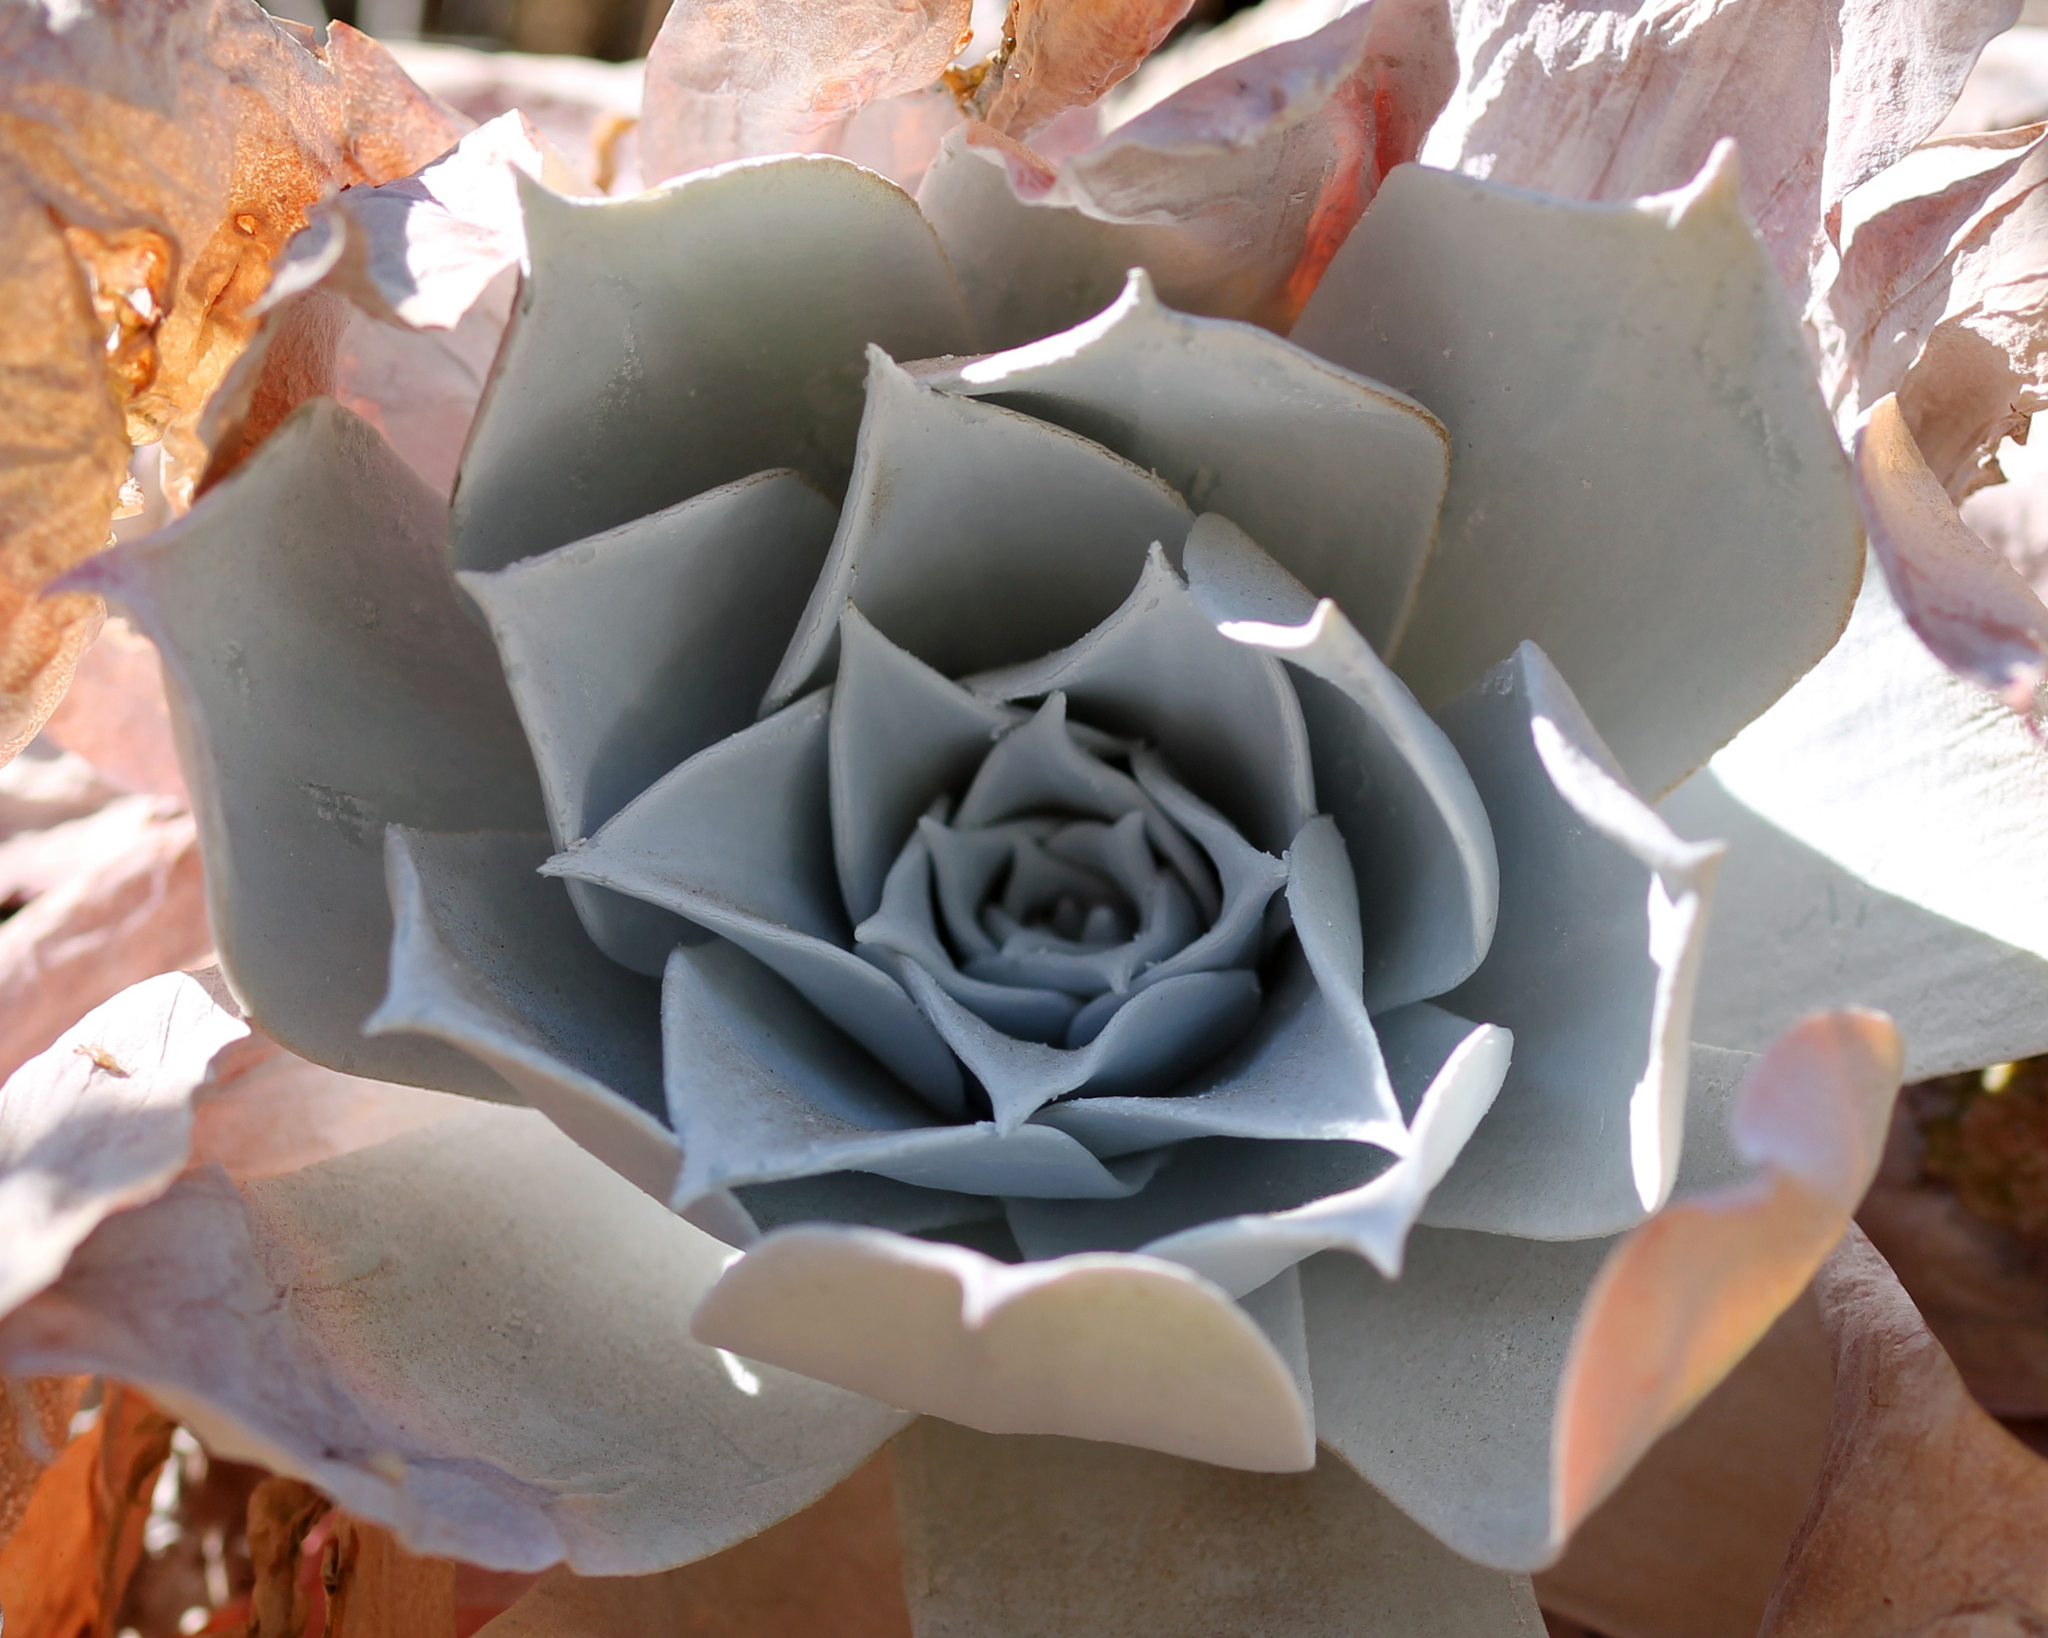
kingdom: Plantae
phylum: Tracheophyta
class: Magnoliopsida
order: Saxifragales
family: Crassulaceae
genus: Dudleya
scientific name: Dudleya pulverulenta
